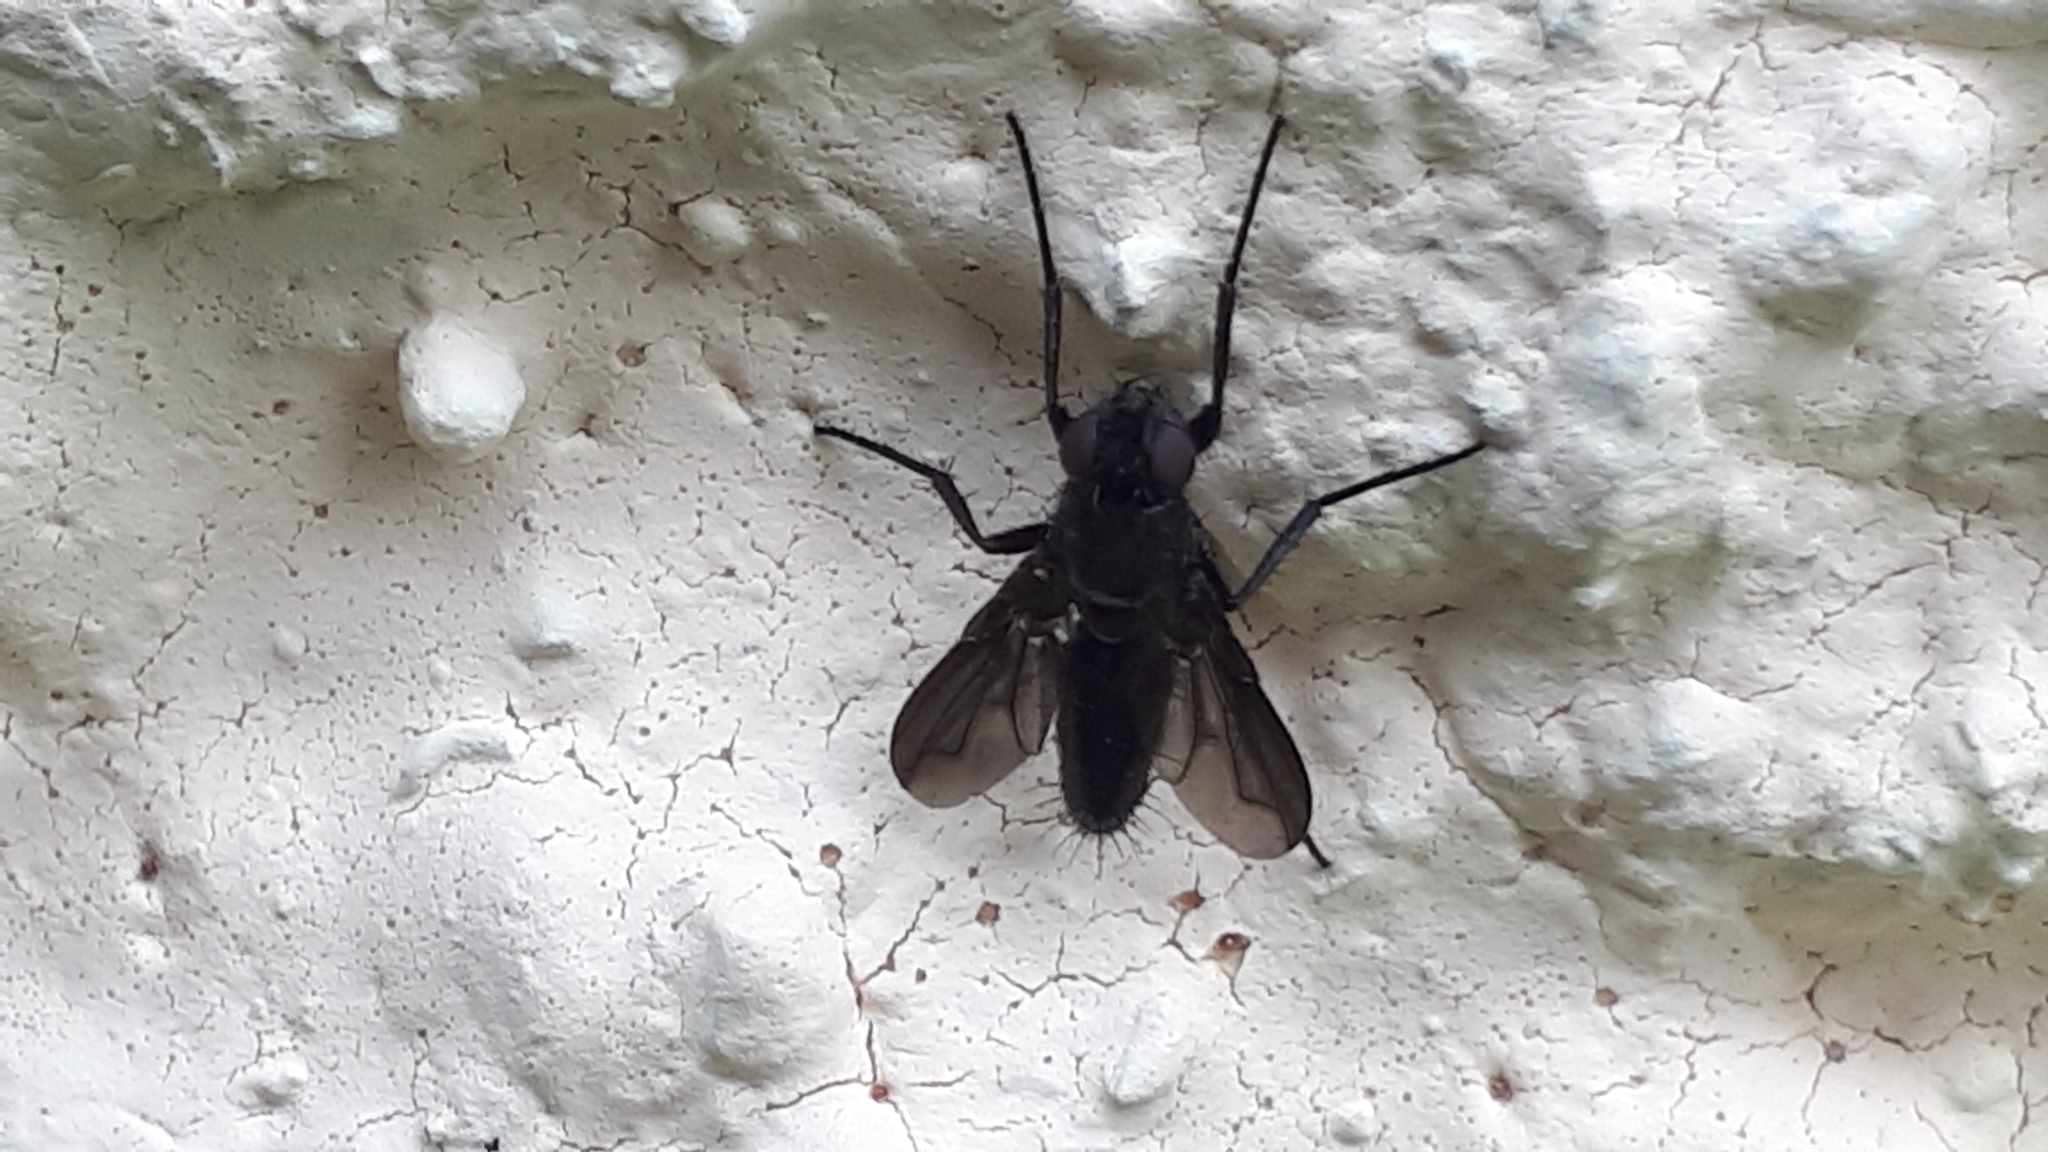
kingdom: Animalia
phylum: Arthropoda
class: Insecta
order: Diptera
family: Calliphoridae
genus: Melanophora
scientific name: Melanophora roralis
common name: Smoky-winged woodlouse-fly
